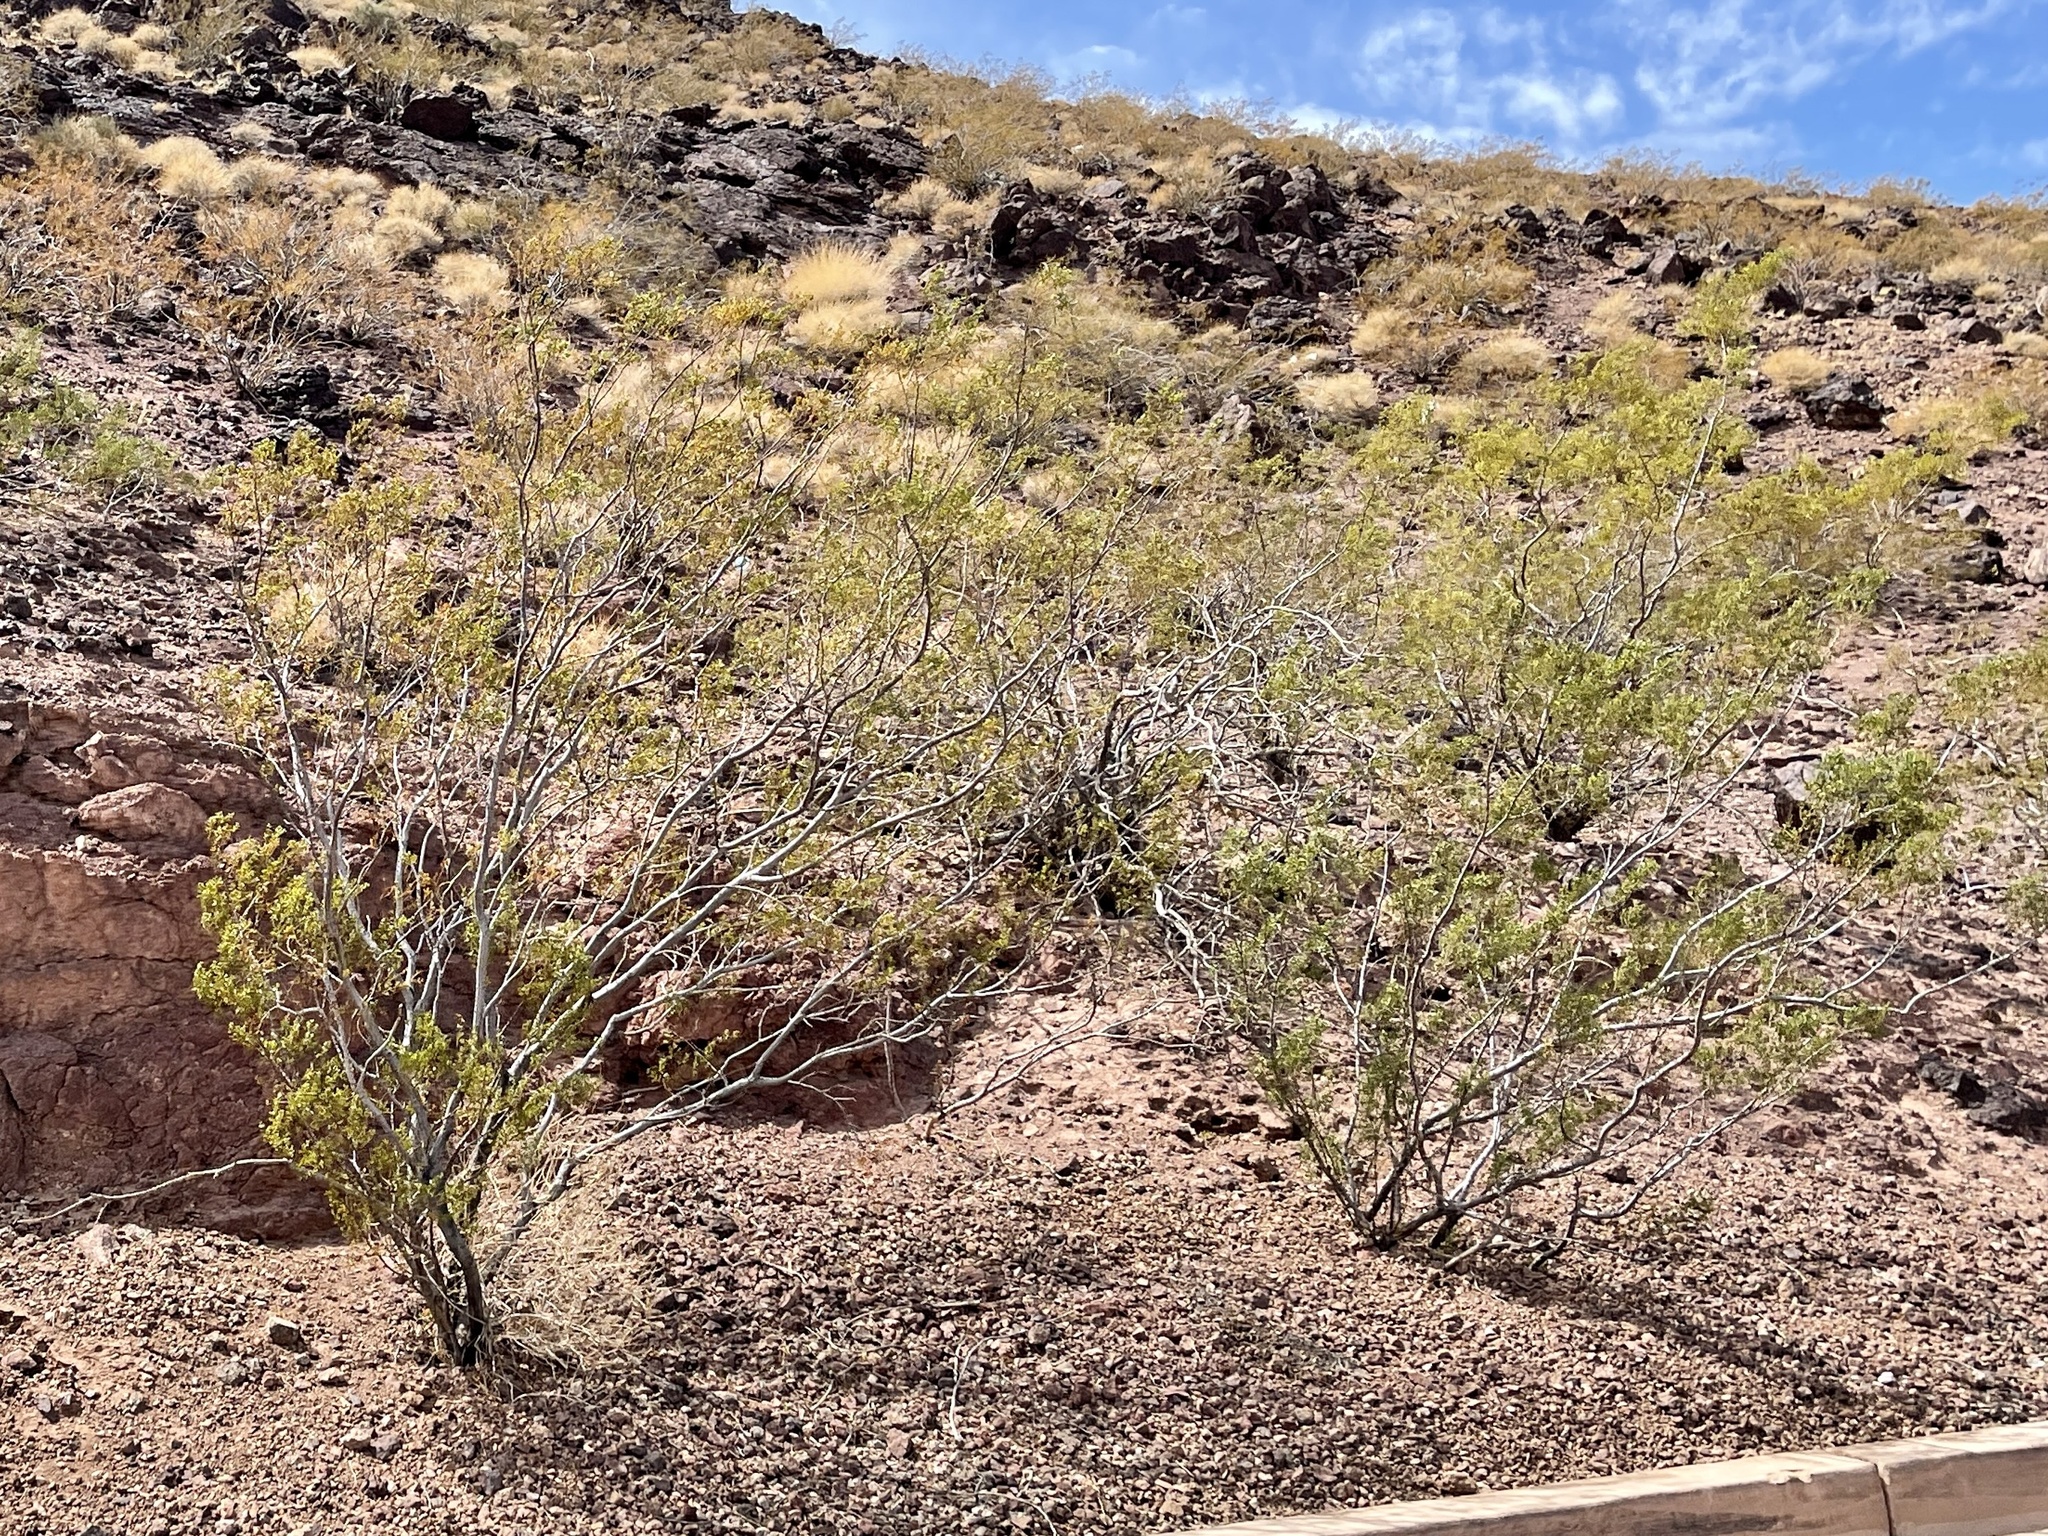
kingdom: Plantae
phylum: Tracheophyta
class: Magnoliopsida
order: Zygophyllales
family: Zygophyllaceae
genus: Larrea
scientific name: Larrea tridentata
